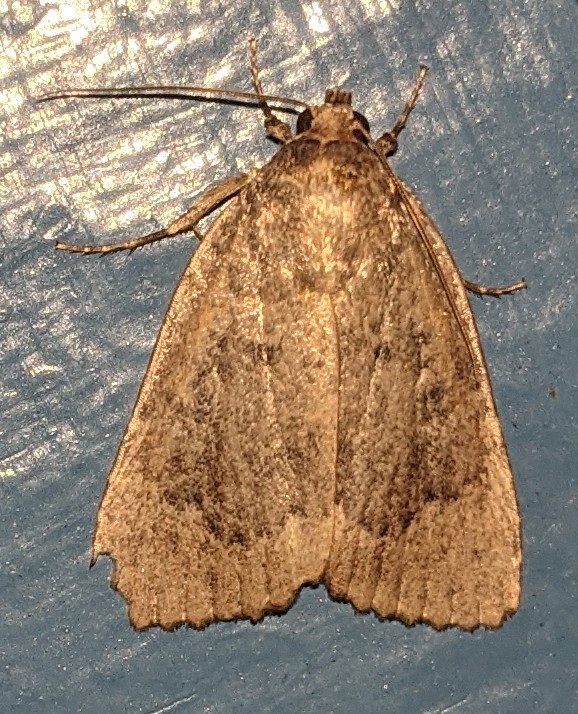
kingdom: Animalia
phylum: Arthropoda
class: Insecta
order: Lepidoptera
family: Noctuidae
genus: Amphipyra
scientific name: Amphipyra pyramidoides
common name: American copper underwing
